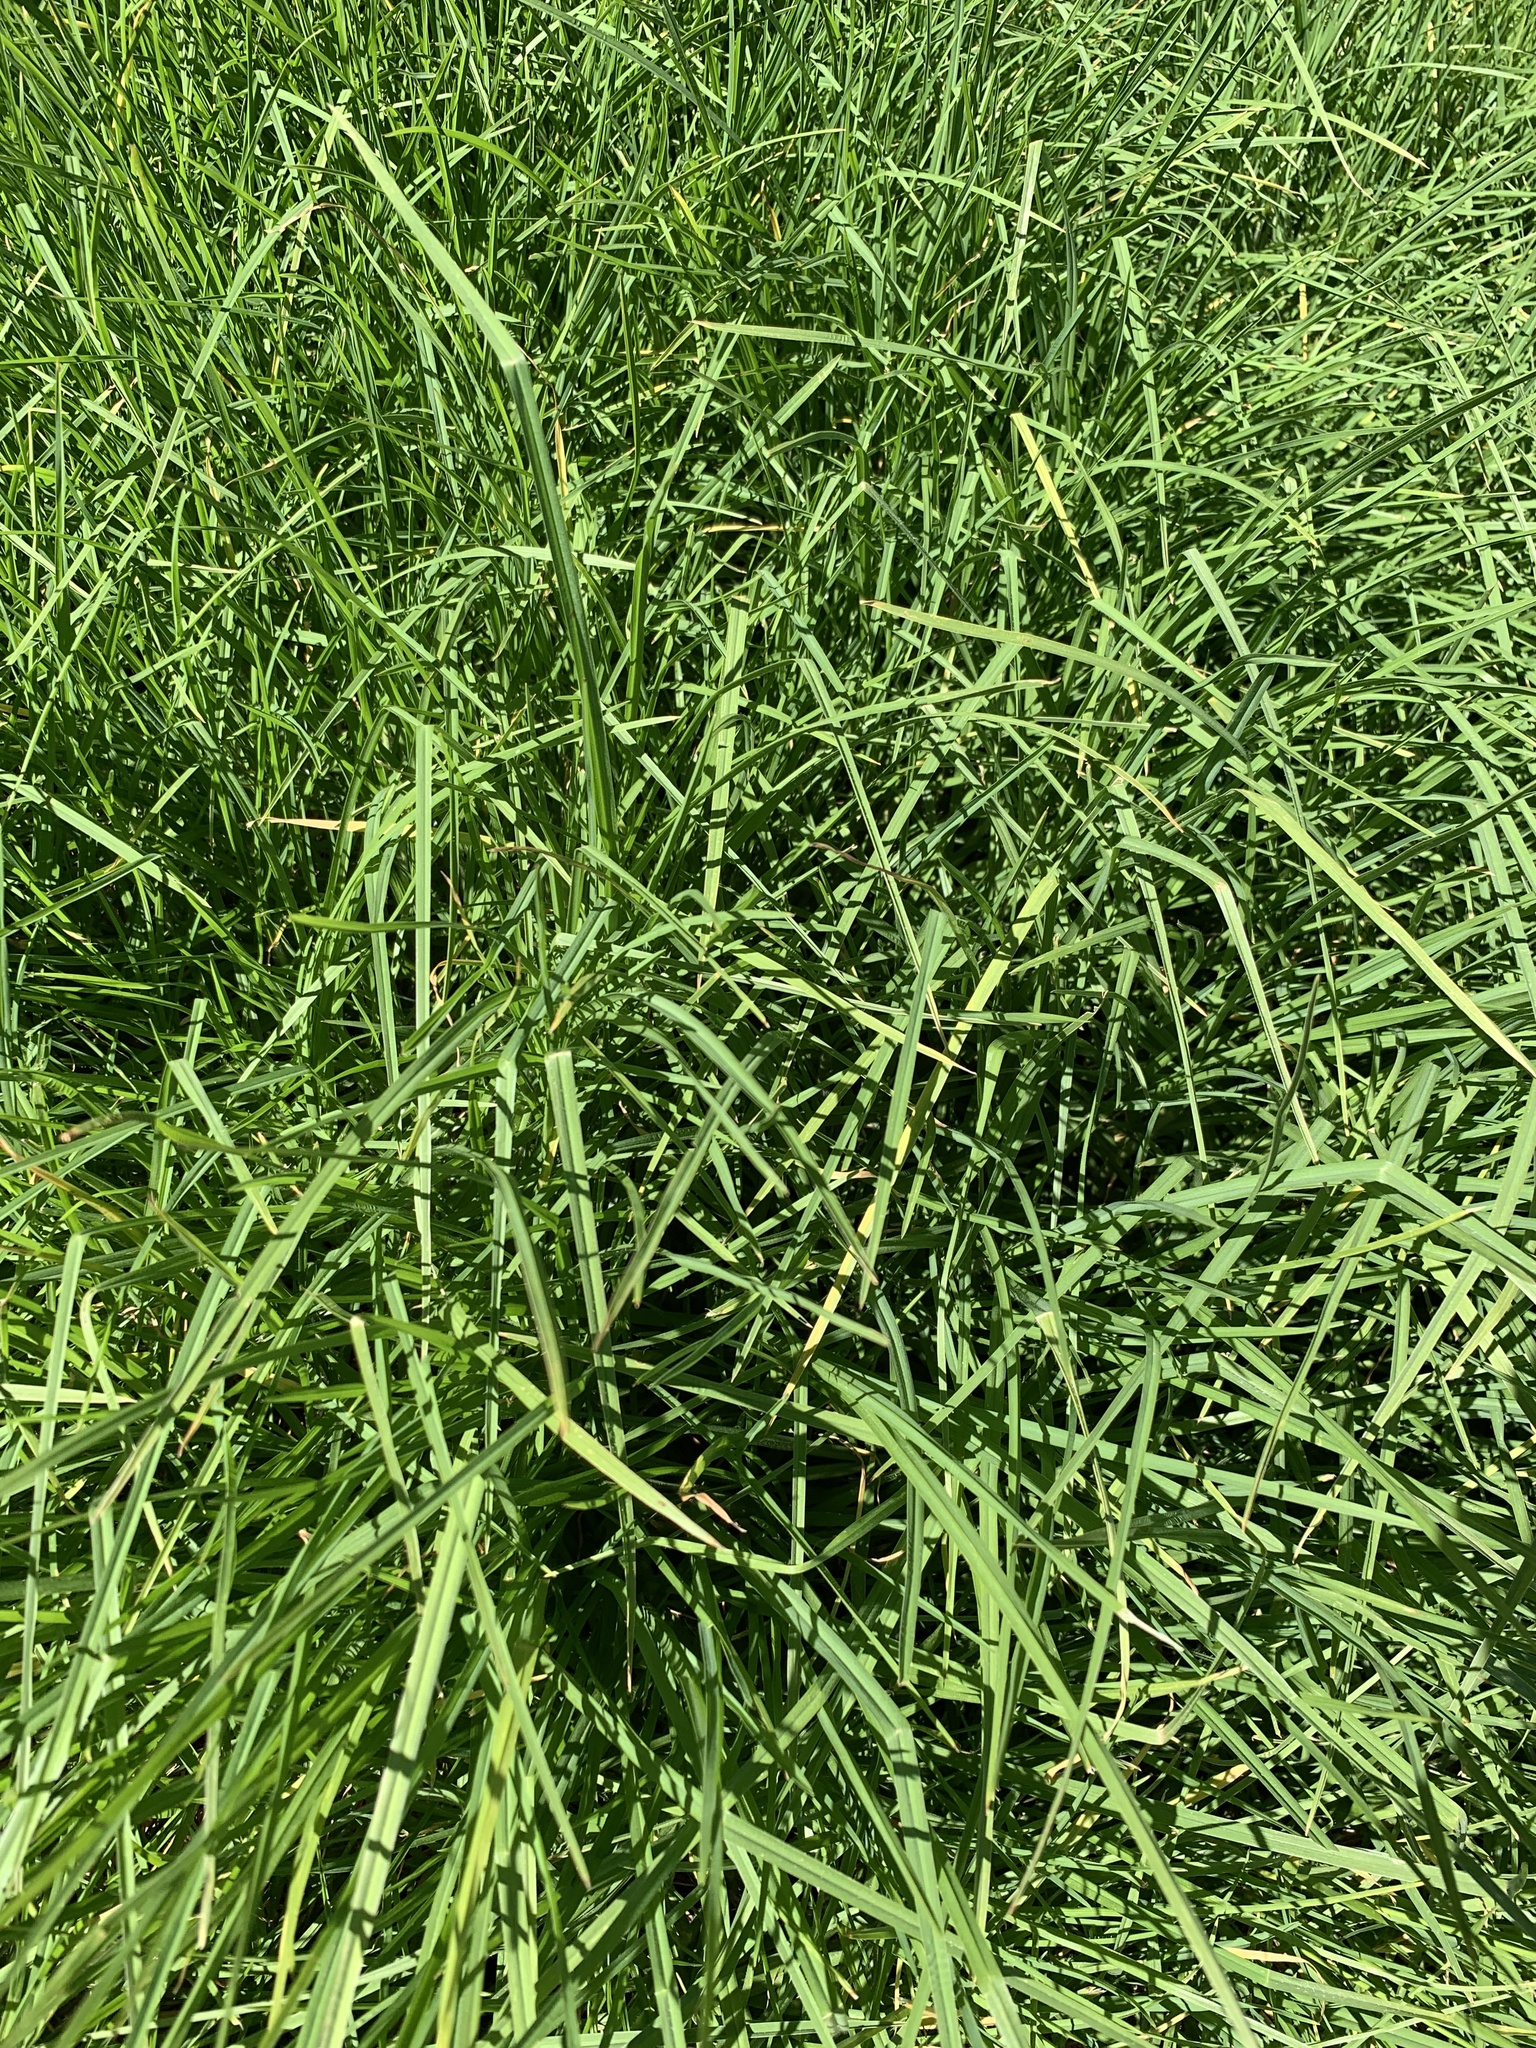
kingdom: Plantae
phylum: Tracheophyta
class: Liliopsida
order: Poales
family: Poaceae
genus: Cenchrus
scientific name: Cenchrus clandestinus
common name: Kikuyugrass
